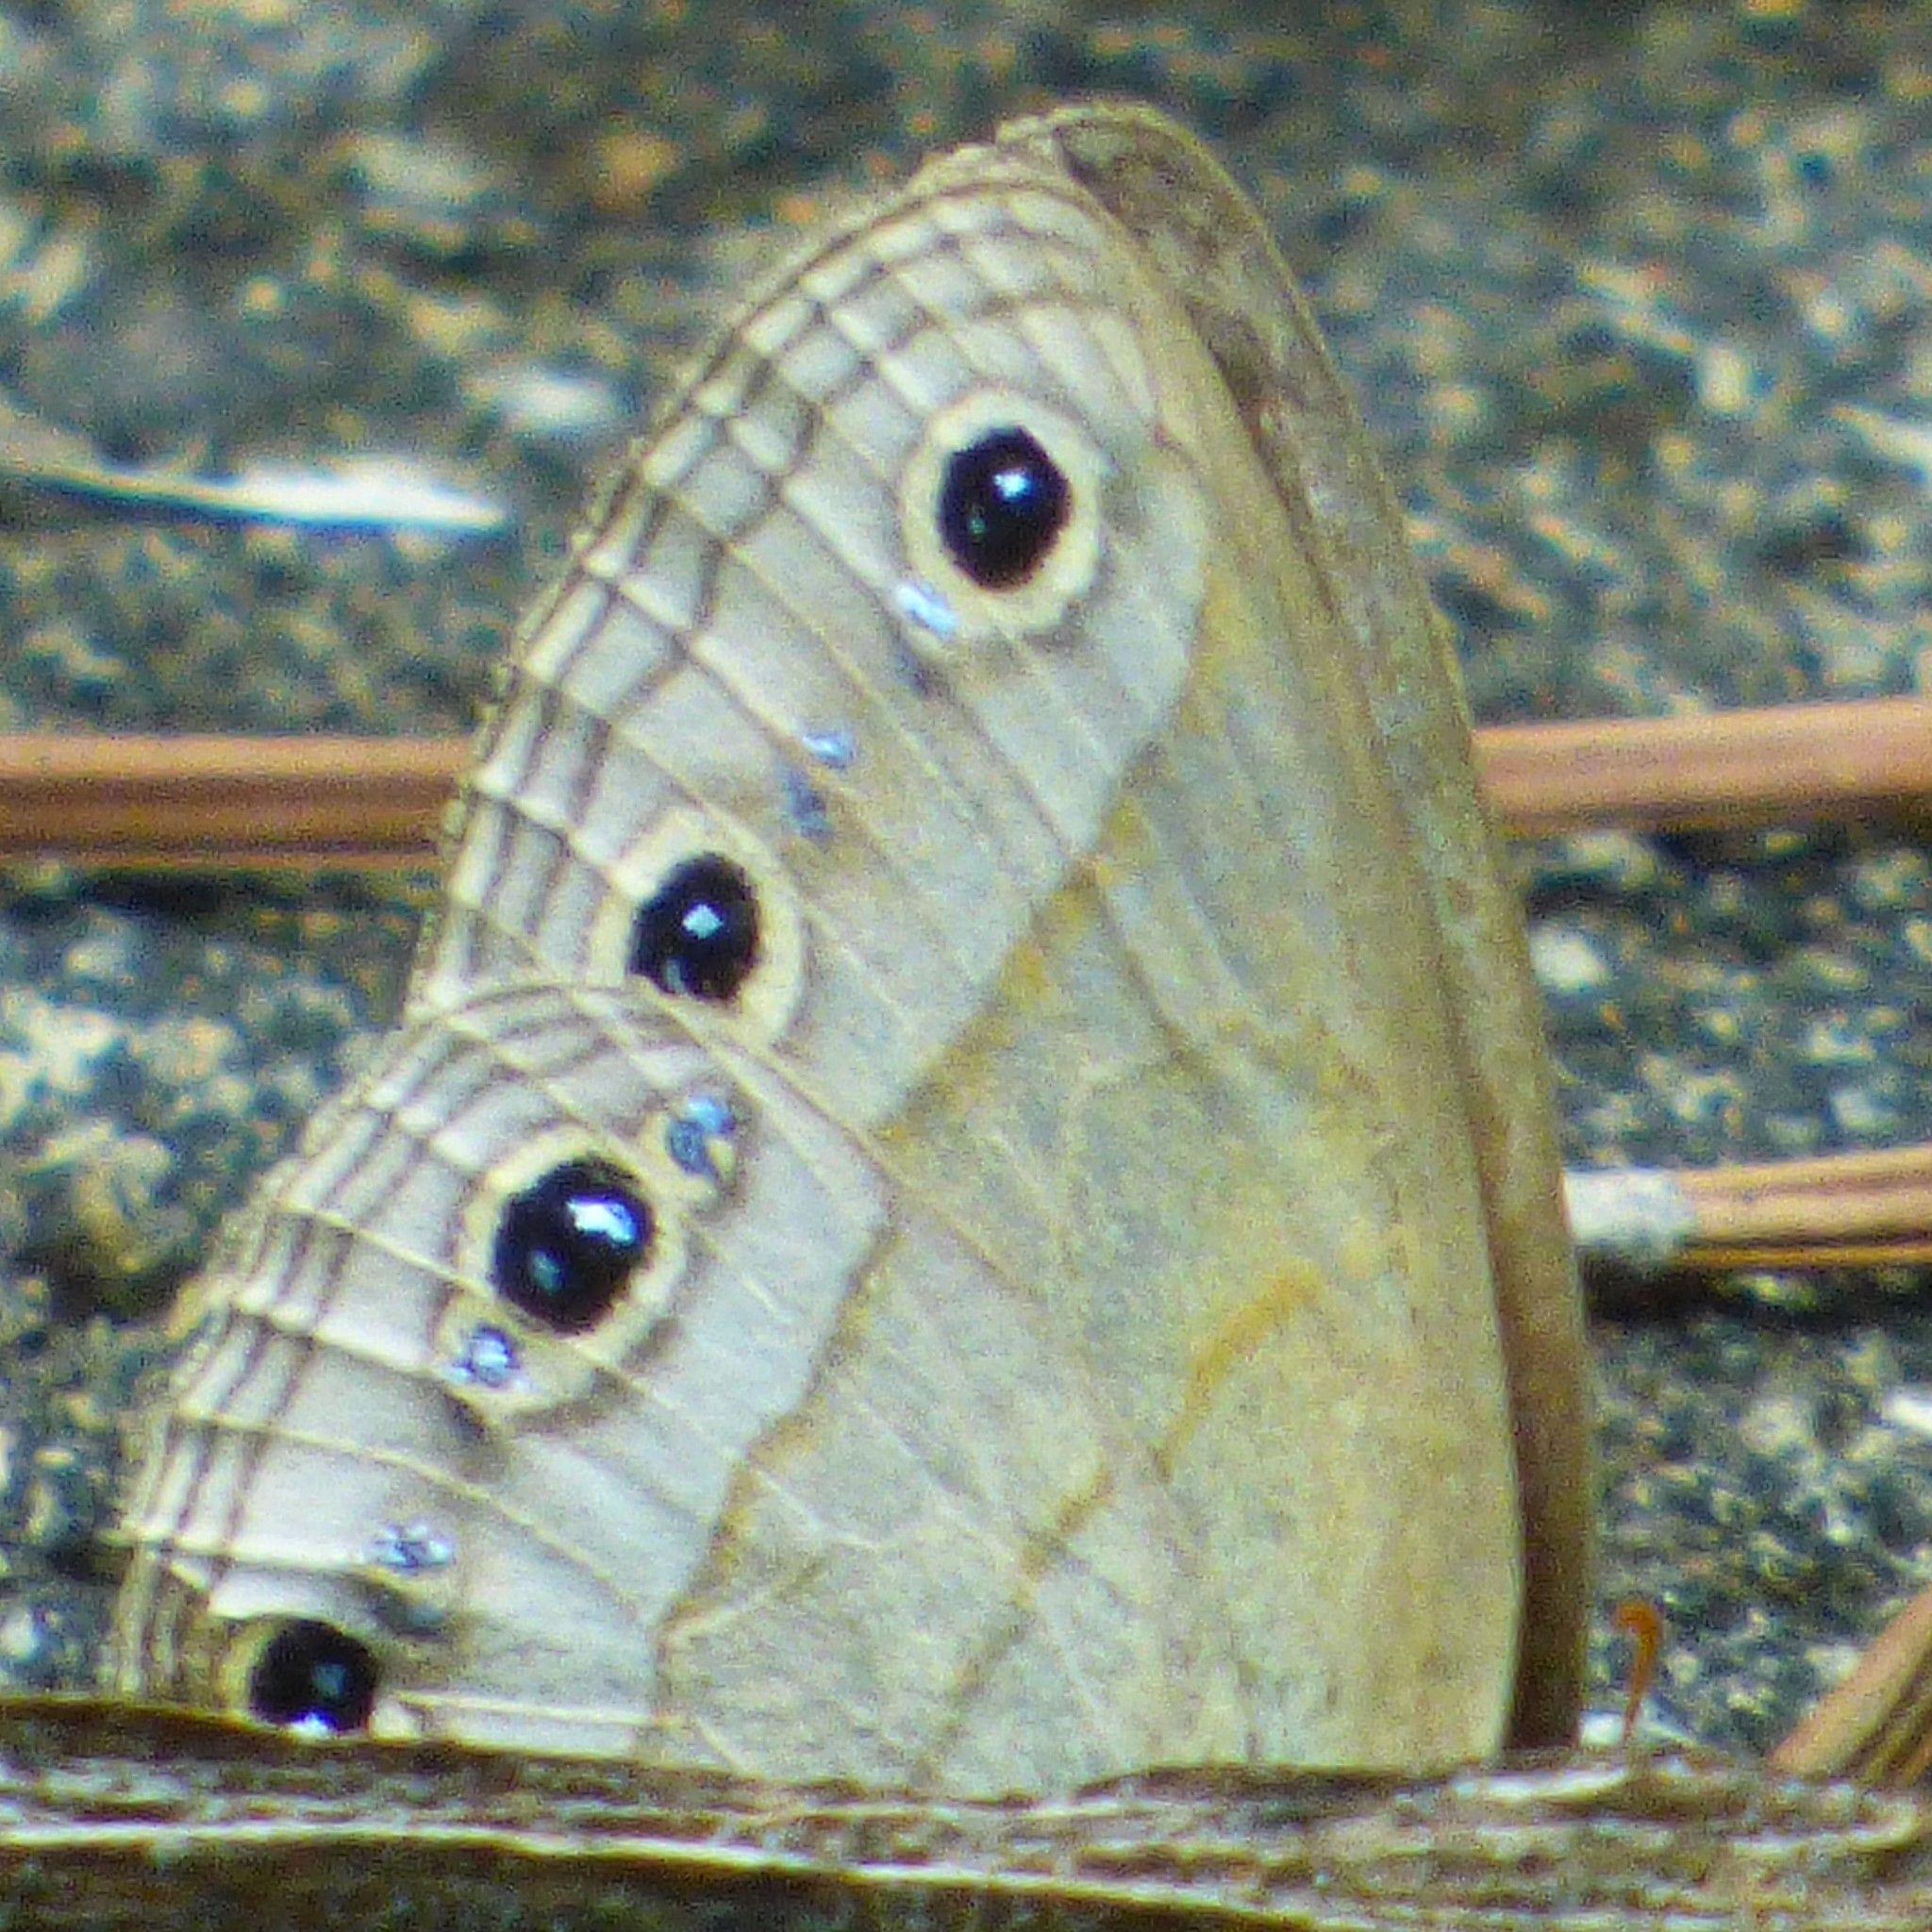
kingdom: Animalia
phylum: Arthropoda
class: Insecta
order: Lepidoptera
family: Nymphalidae
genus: Euptychia
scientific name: Euptychia cymela
